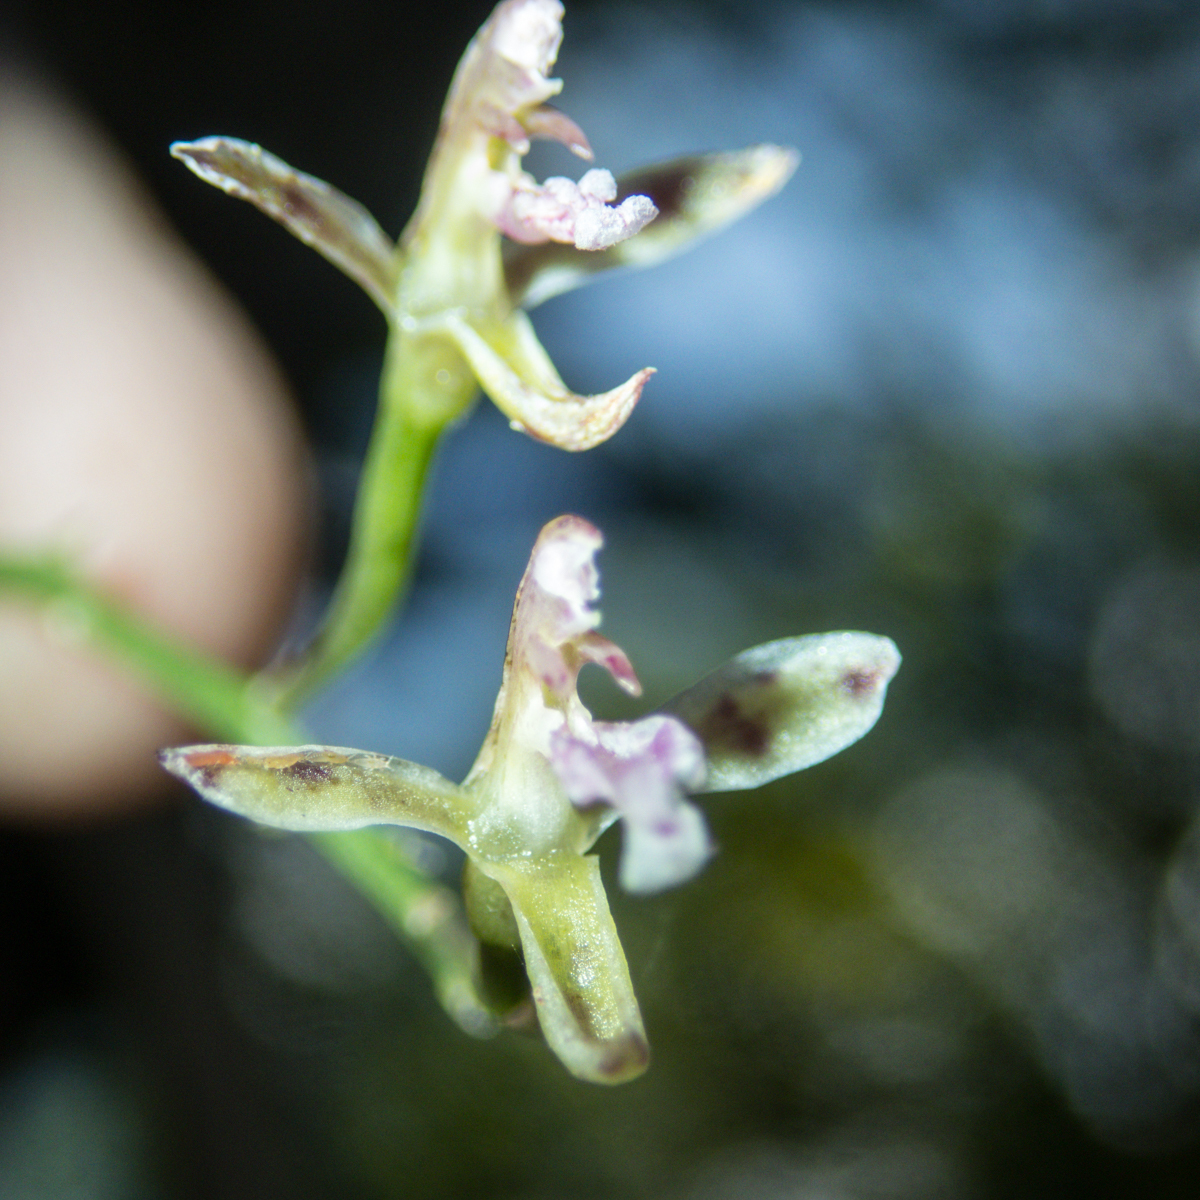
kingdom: Plantae
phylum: Tracheophyta
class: Liliopsida
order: Asparagales
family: Orchidaceae
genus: Acriopsis
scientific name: Acriopsis liliifolia
